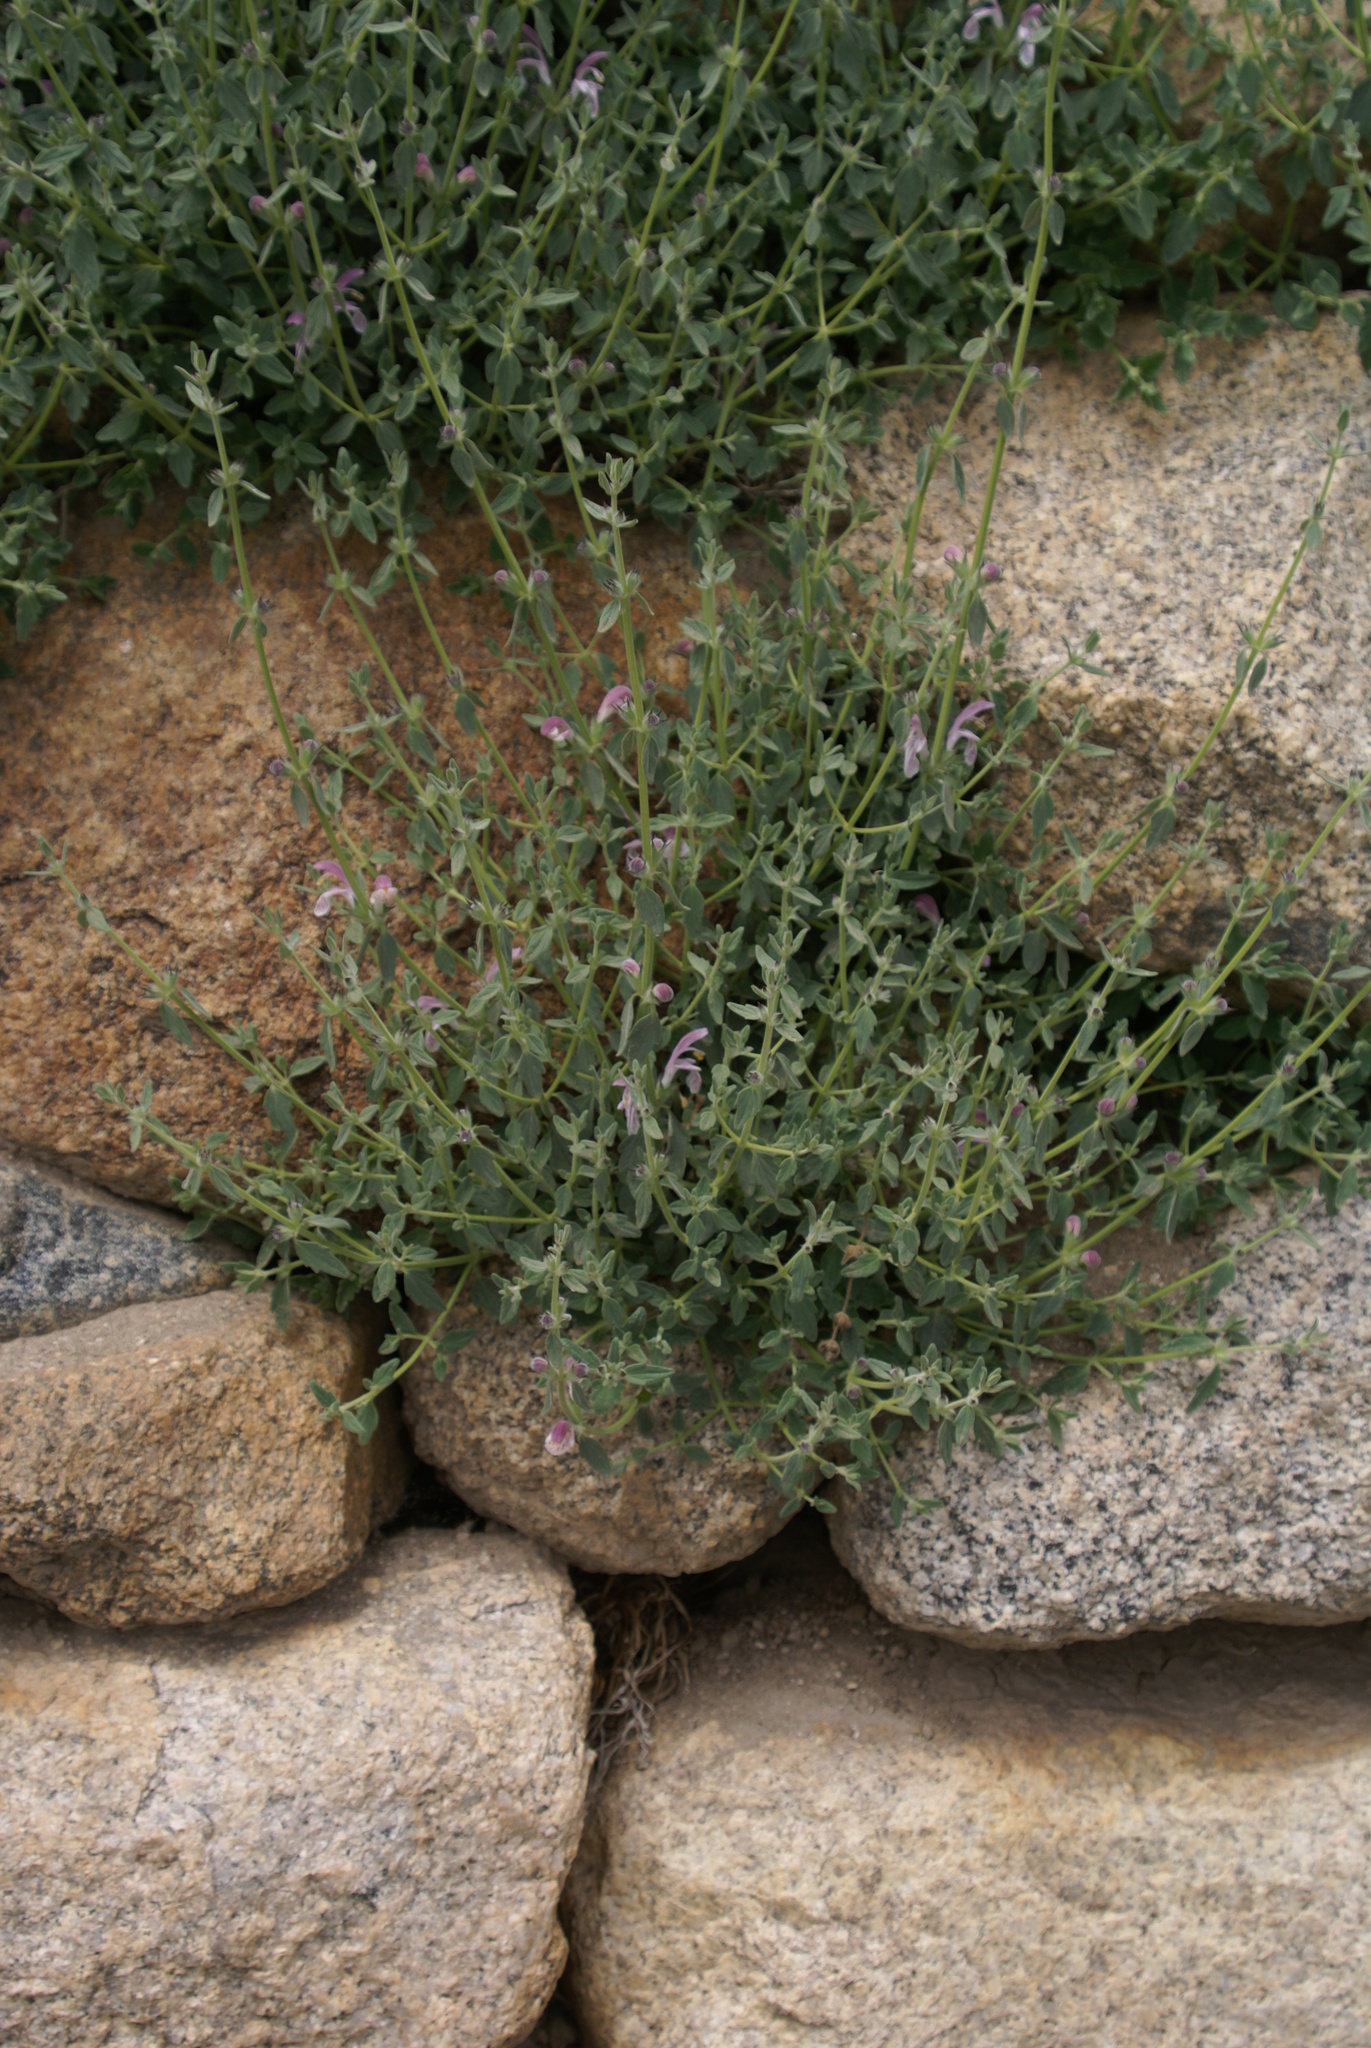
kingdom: Plantae
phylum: Tracheophyta
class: Magnoliopsida
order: Lamiales
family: Lamiaceae
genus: Eriophyton
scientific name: Eriophyton tibeticum
